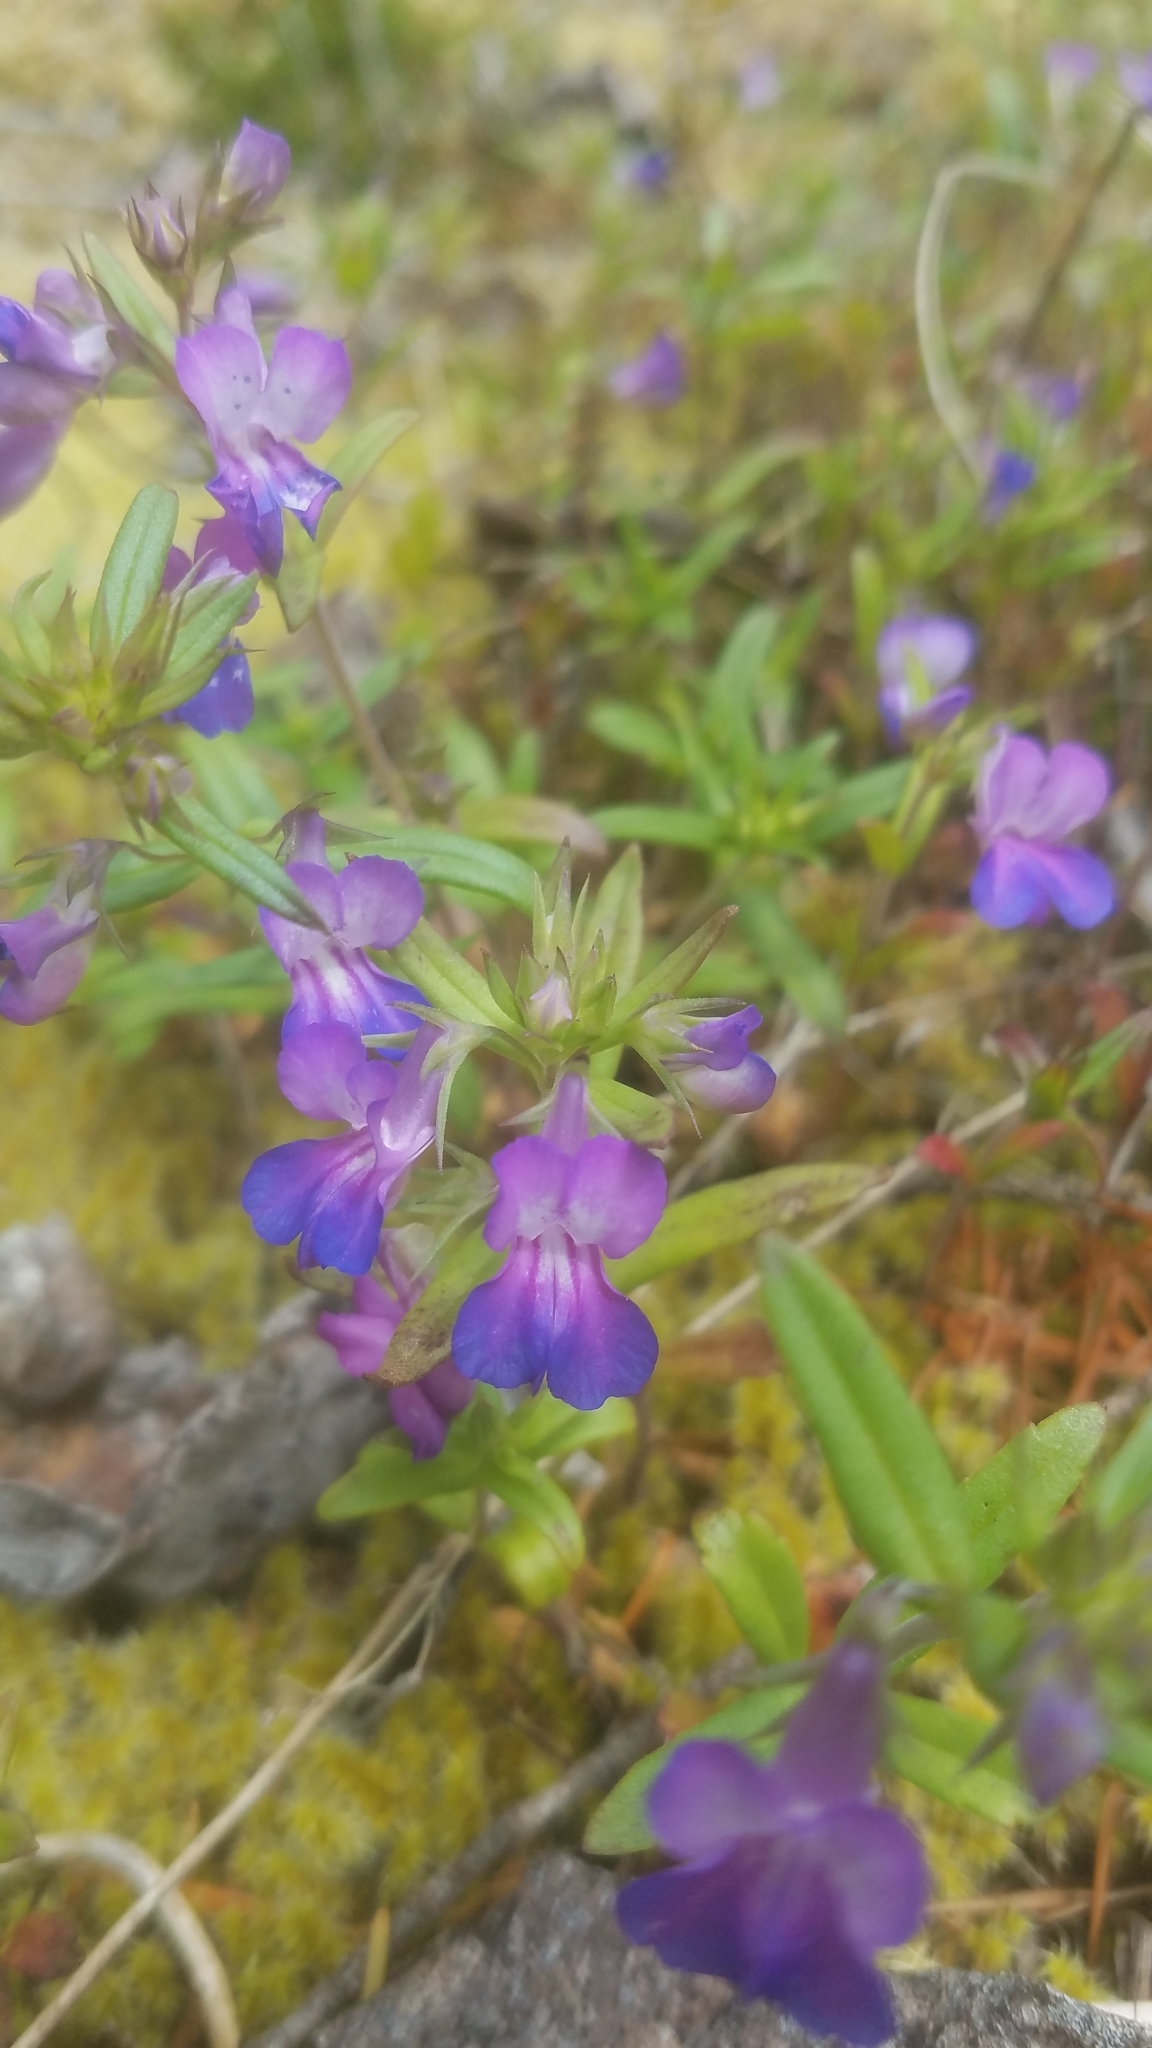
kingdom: Plantae
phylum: Tracheophyta
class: Magnoliopsida
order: Lamiales
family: Plantaginaceae
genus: Collinsia
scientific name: Collinsia grandiflora
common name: Large-flower blue-eyed-mary
